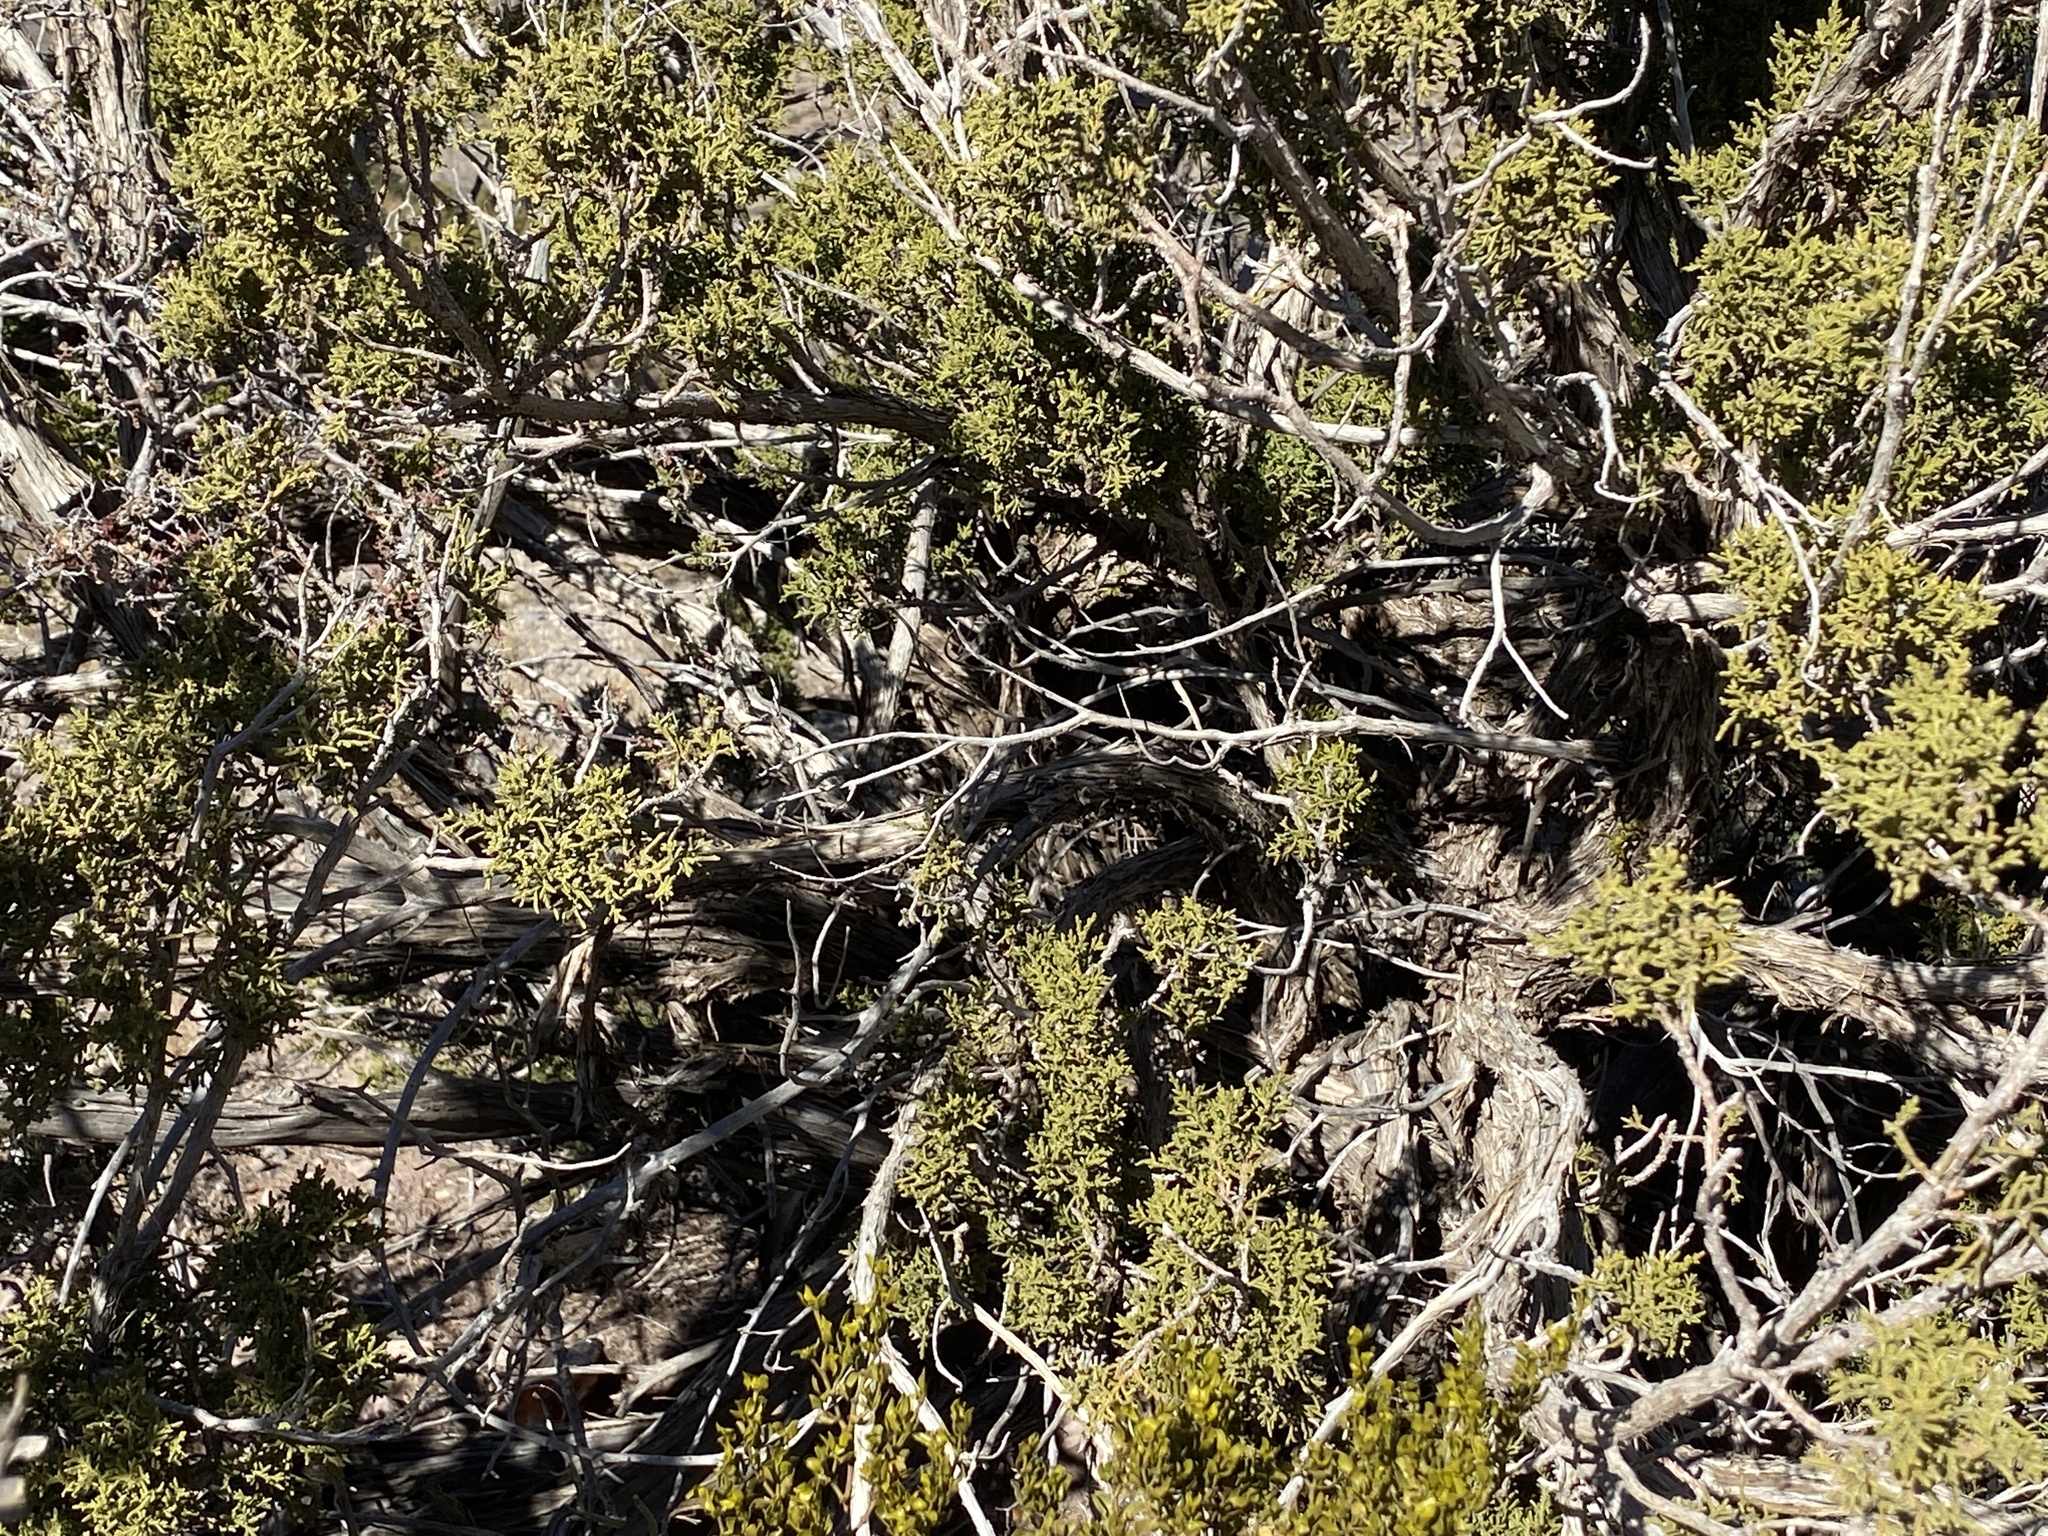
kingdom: Plantae
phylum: Tracheophyta
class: Pinopsida
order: Pinales
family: Cupressaceae
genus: Juniperus
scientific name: Juniperus monosperma
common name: One-seed juniper
